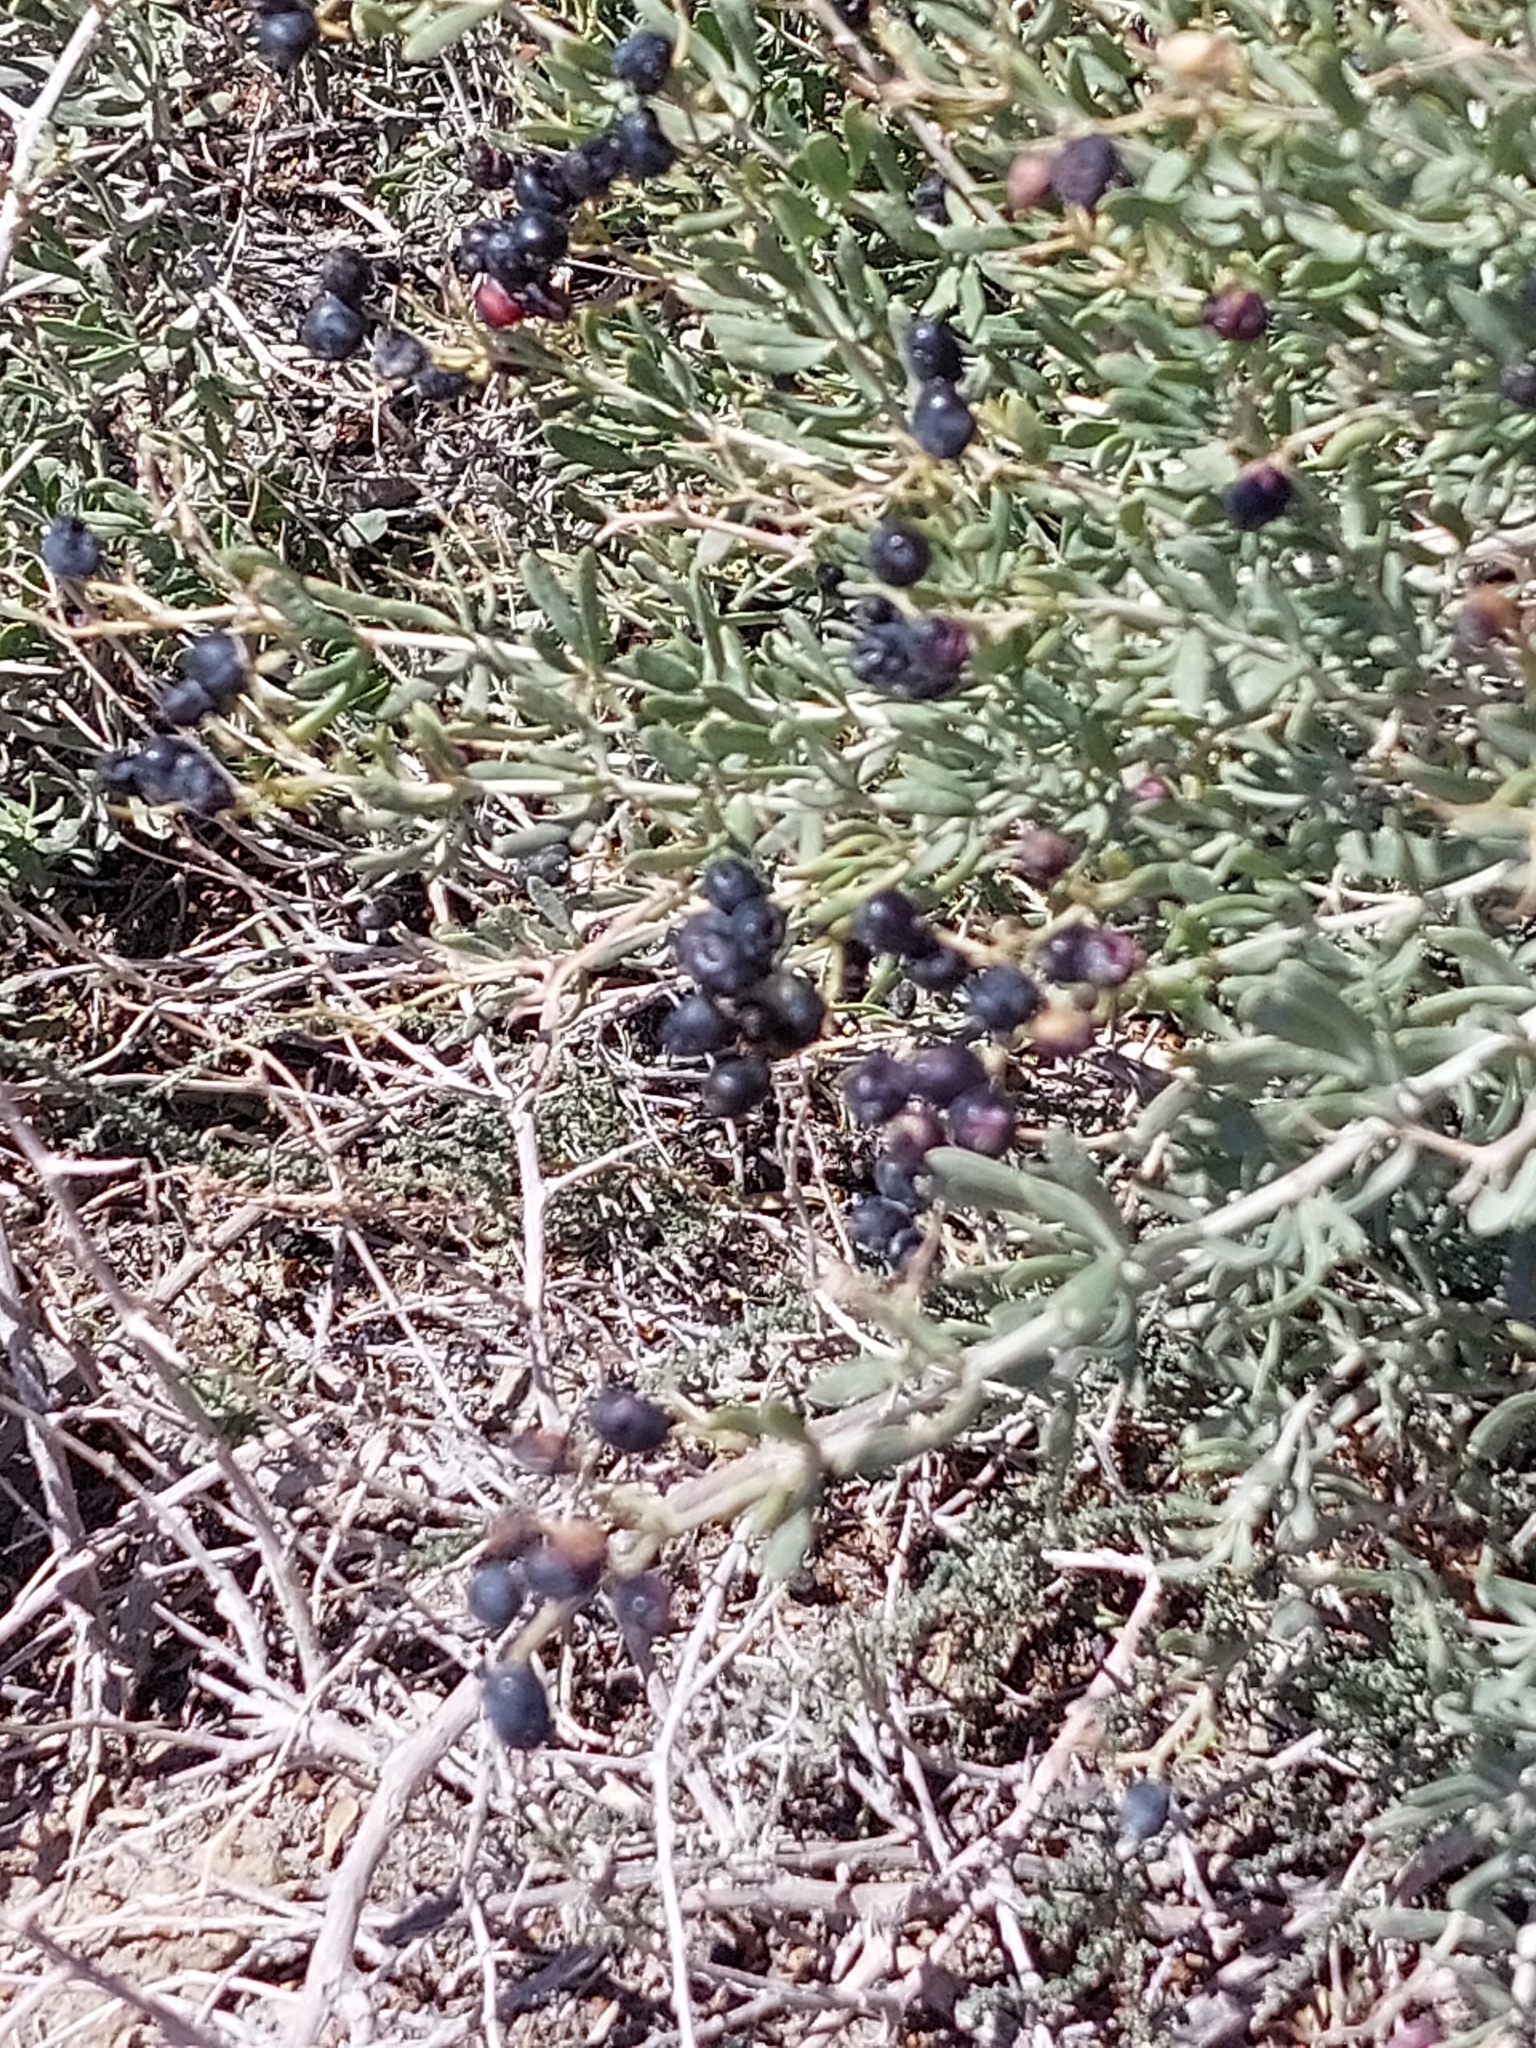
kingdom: Plantae
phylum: Tracheophyta
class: Magnoliopsida
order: Sapindales
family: Nitrariaceae
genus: Nitraria
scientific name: Nitraria sibirica
